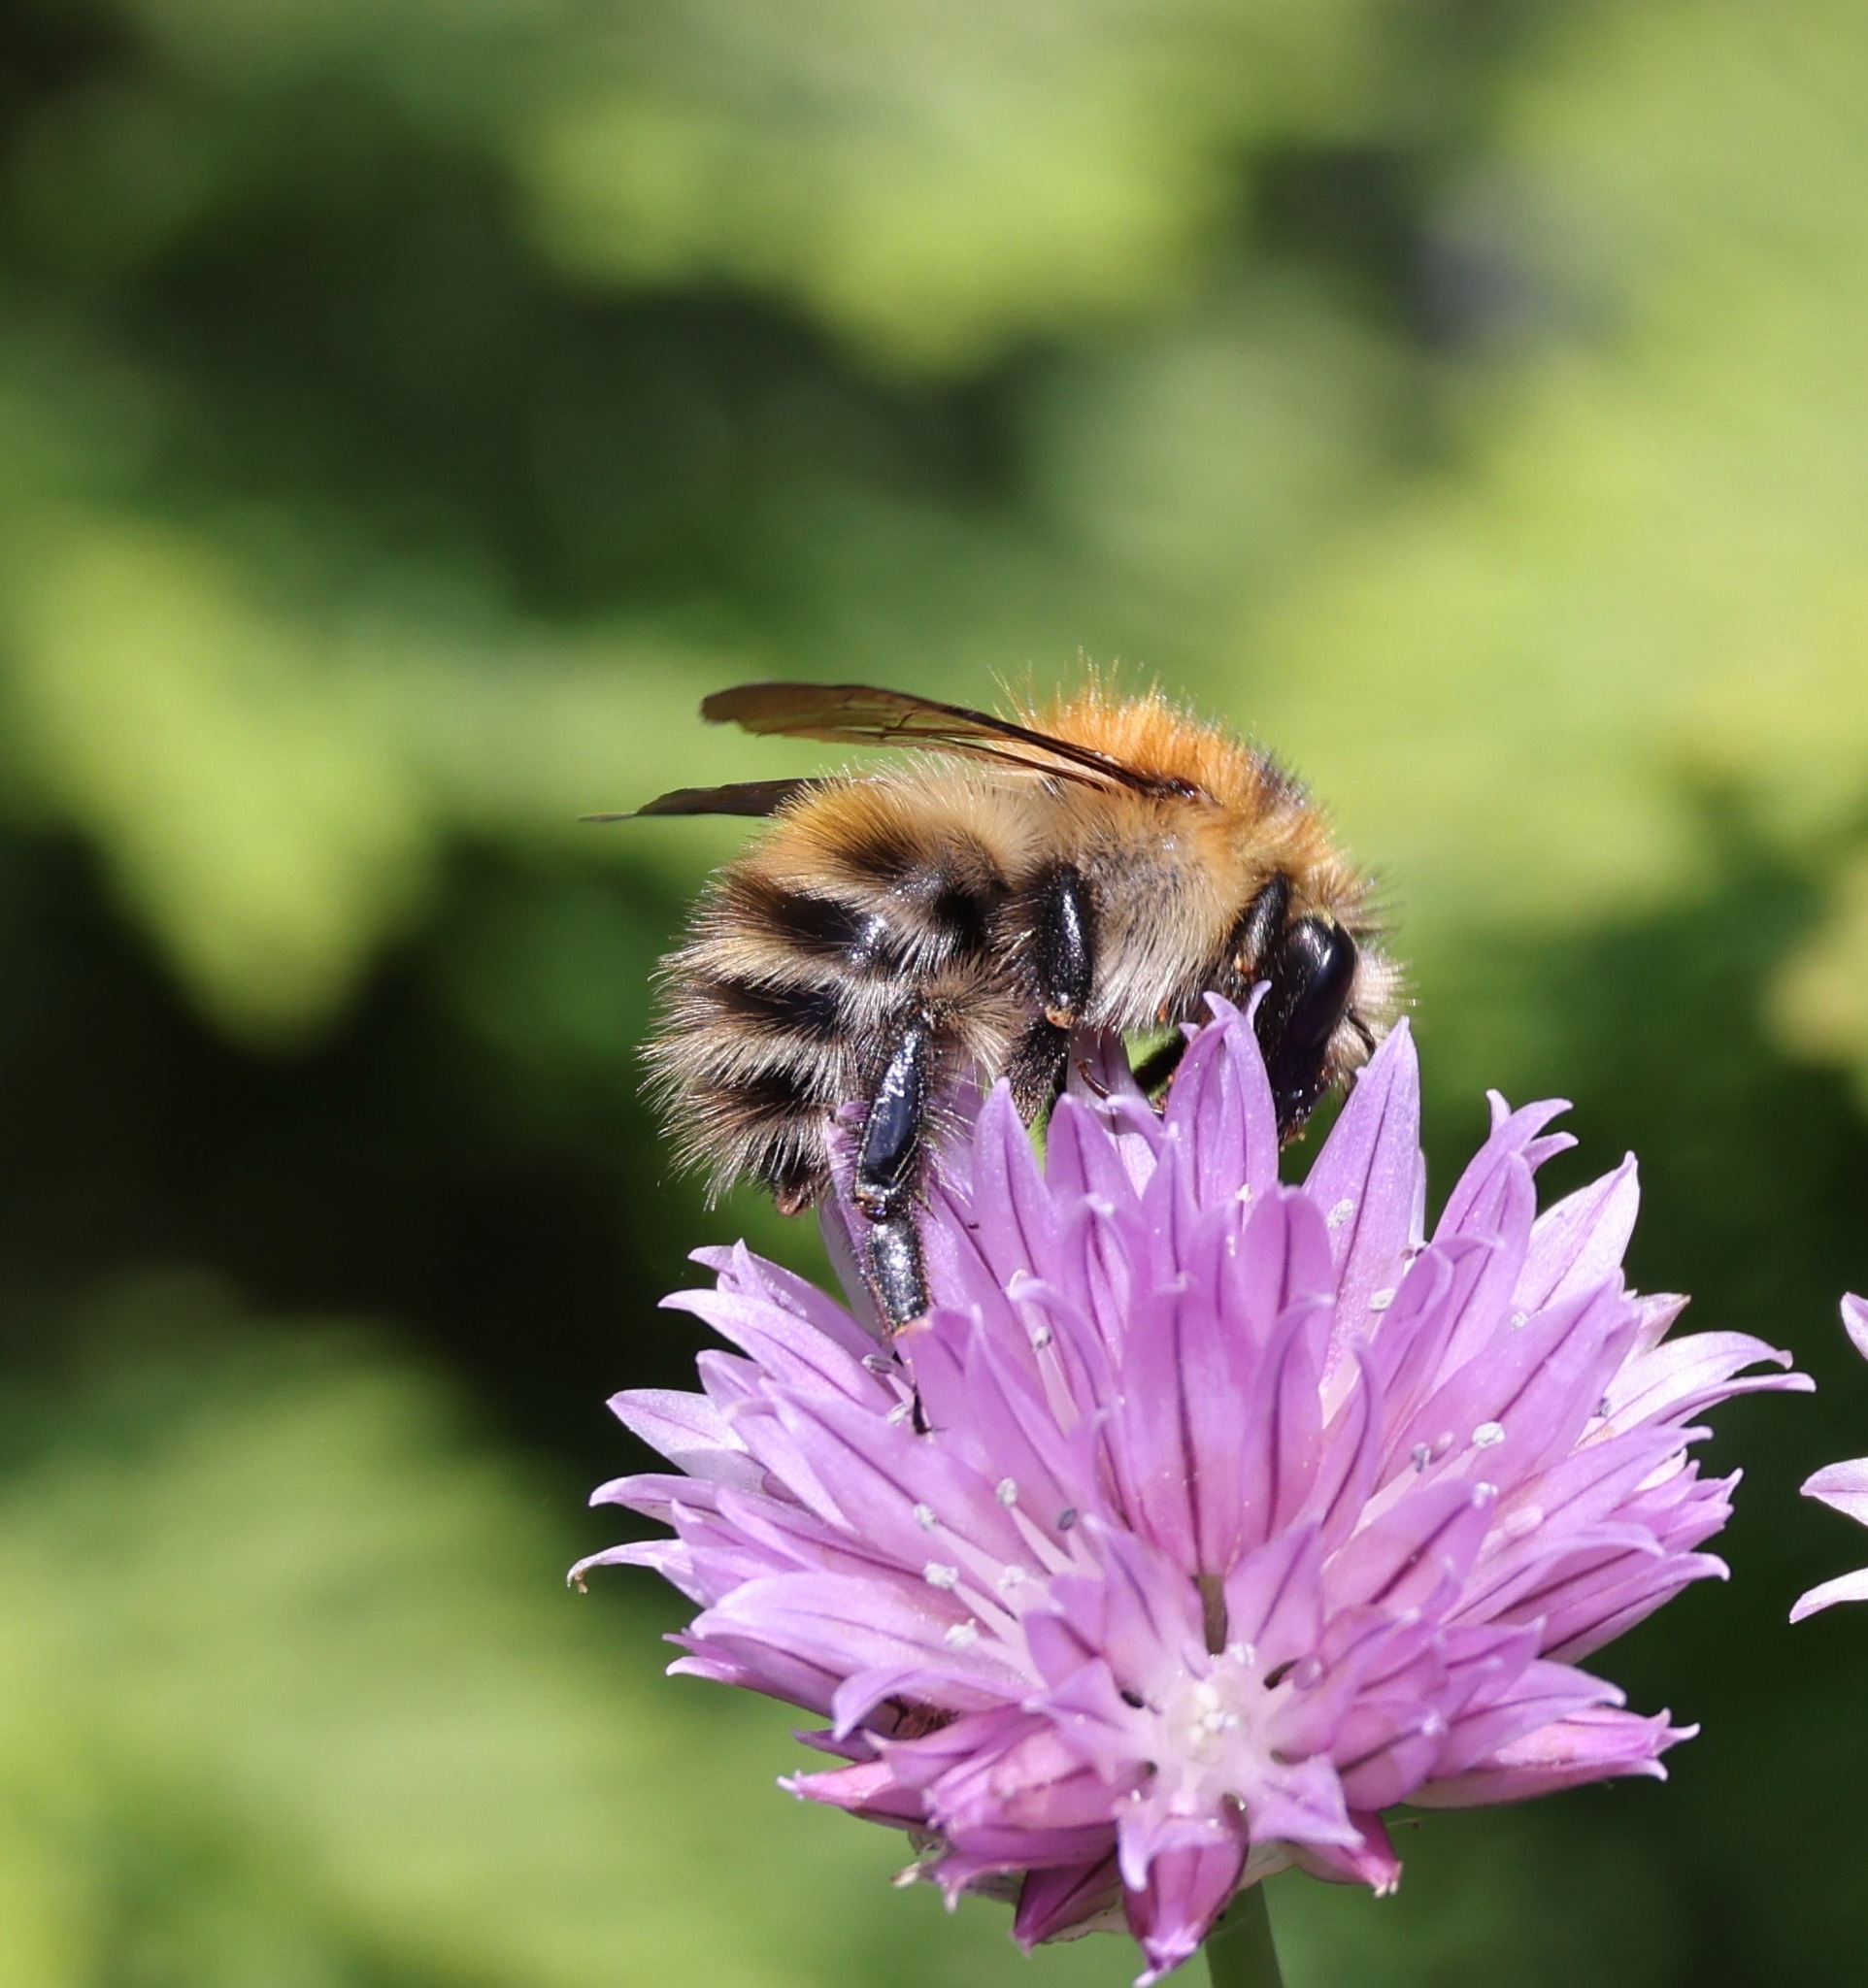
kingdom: Animalia
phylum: Arthropoda
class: Insecta
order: Hymenoptera
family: Apidae
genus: Bombus
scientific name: Bombus pascuorum
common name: Common carder bee
